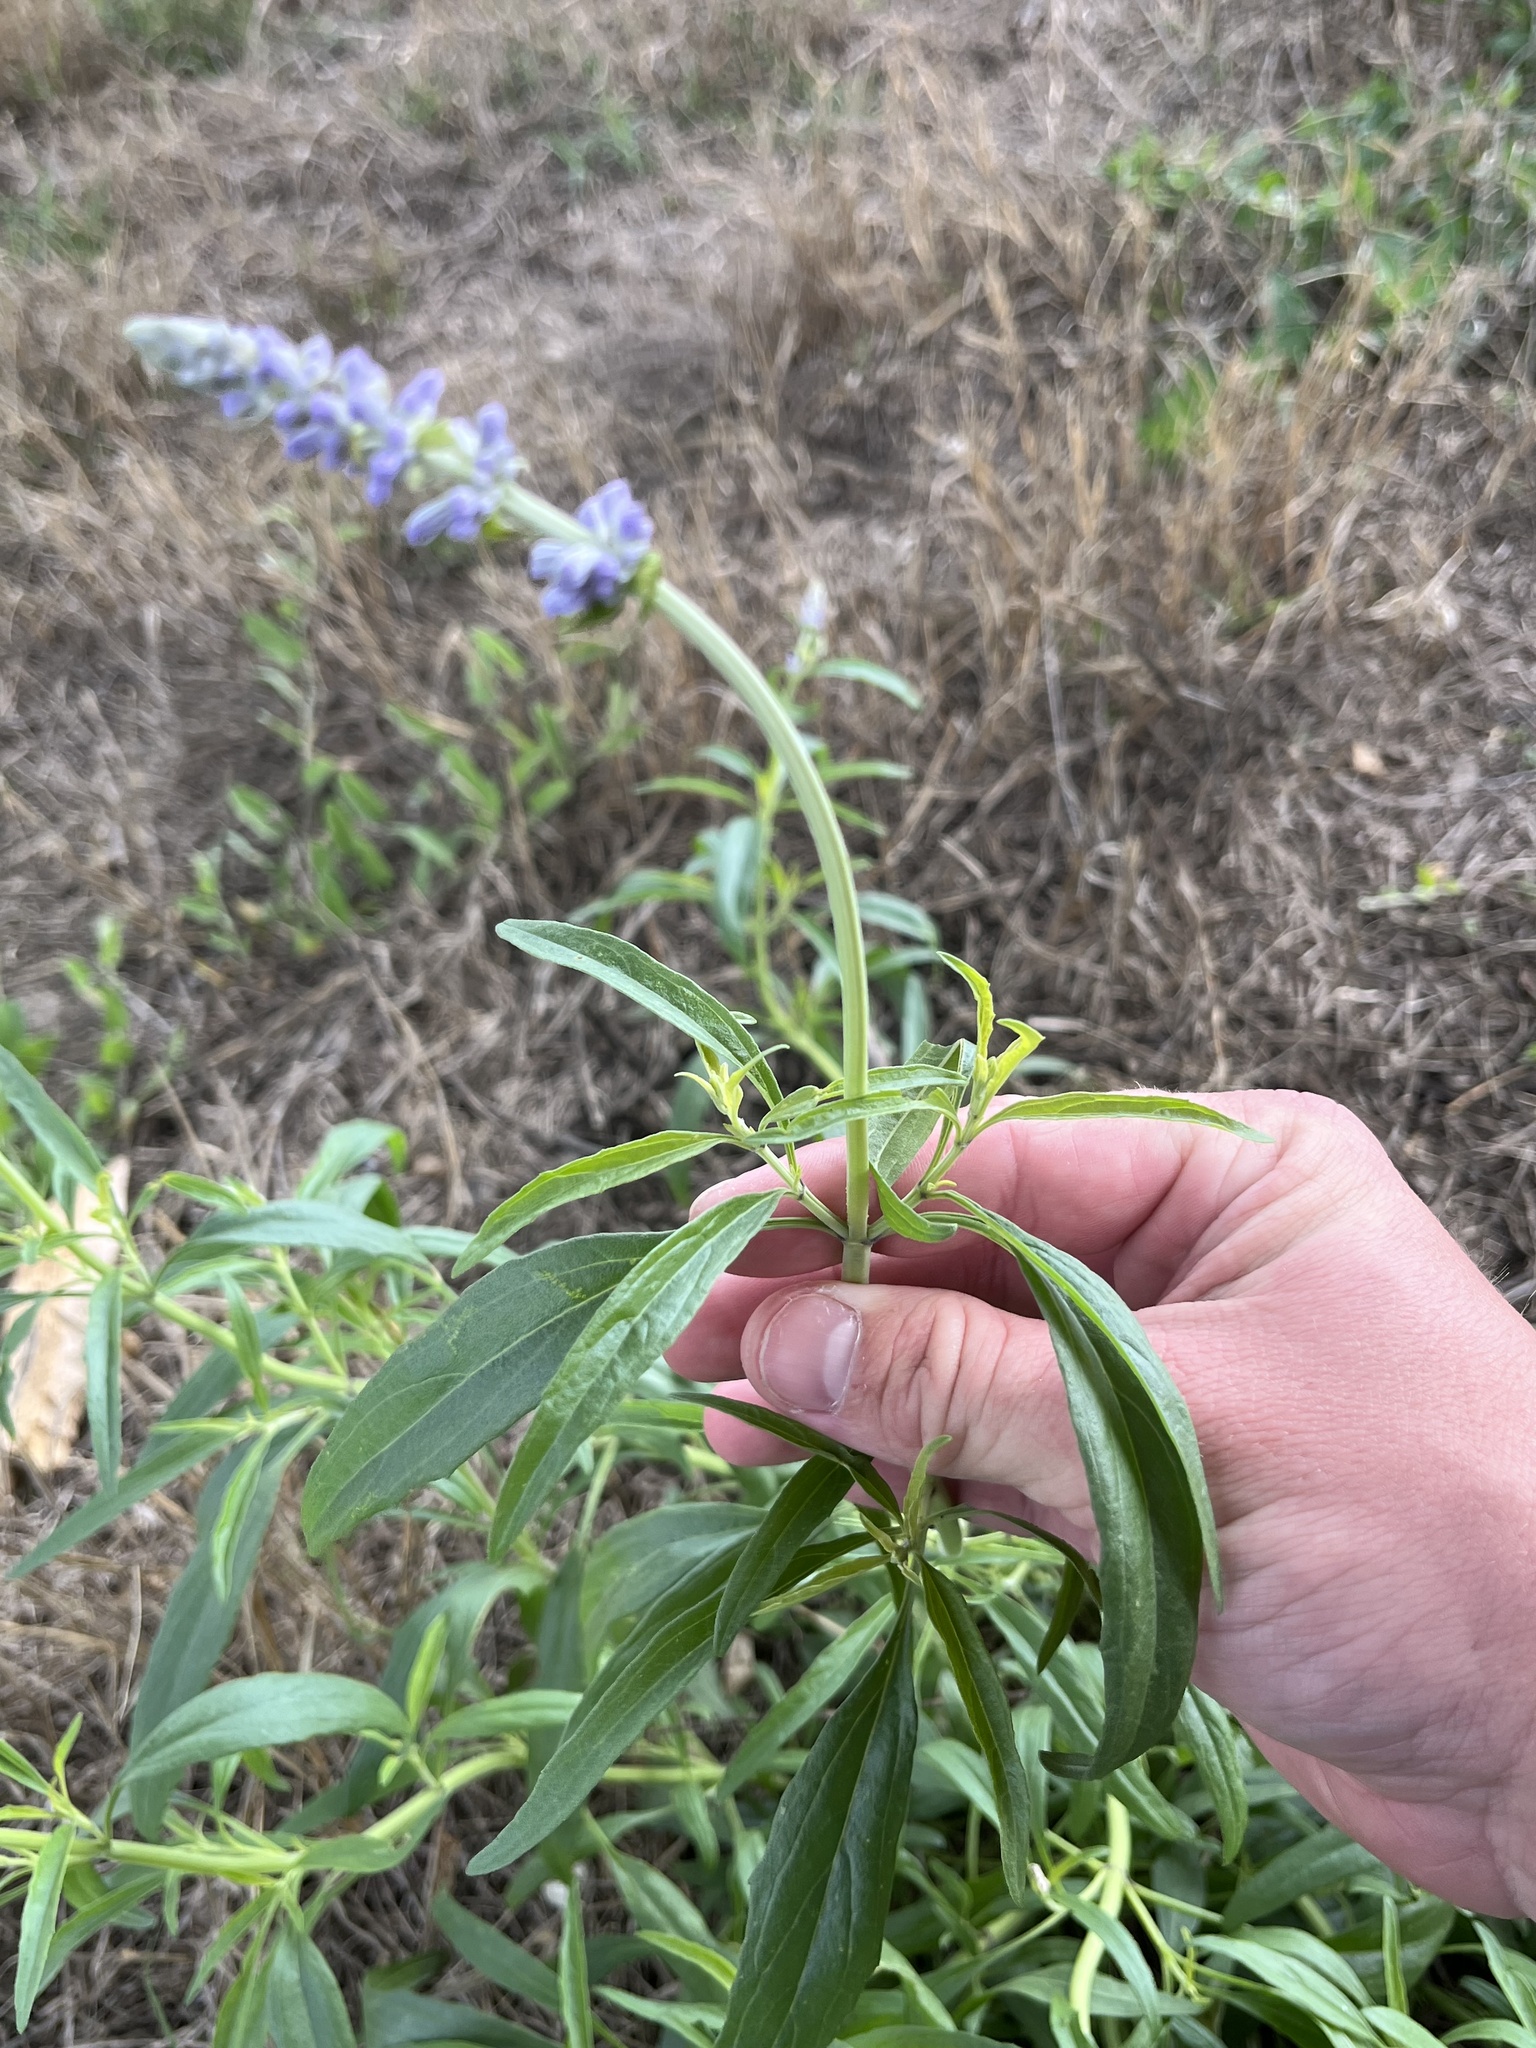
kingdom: Plantae
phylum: Tracheophyta
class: Magnoliopsida
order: Lamiales
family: Lamiaceae
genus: Salvia
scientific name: Salvia farinacea
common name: Mealy sage
